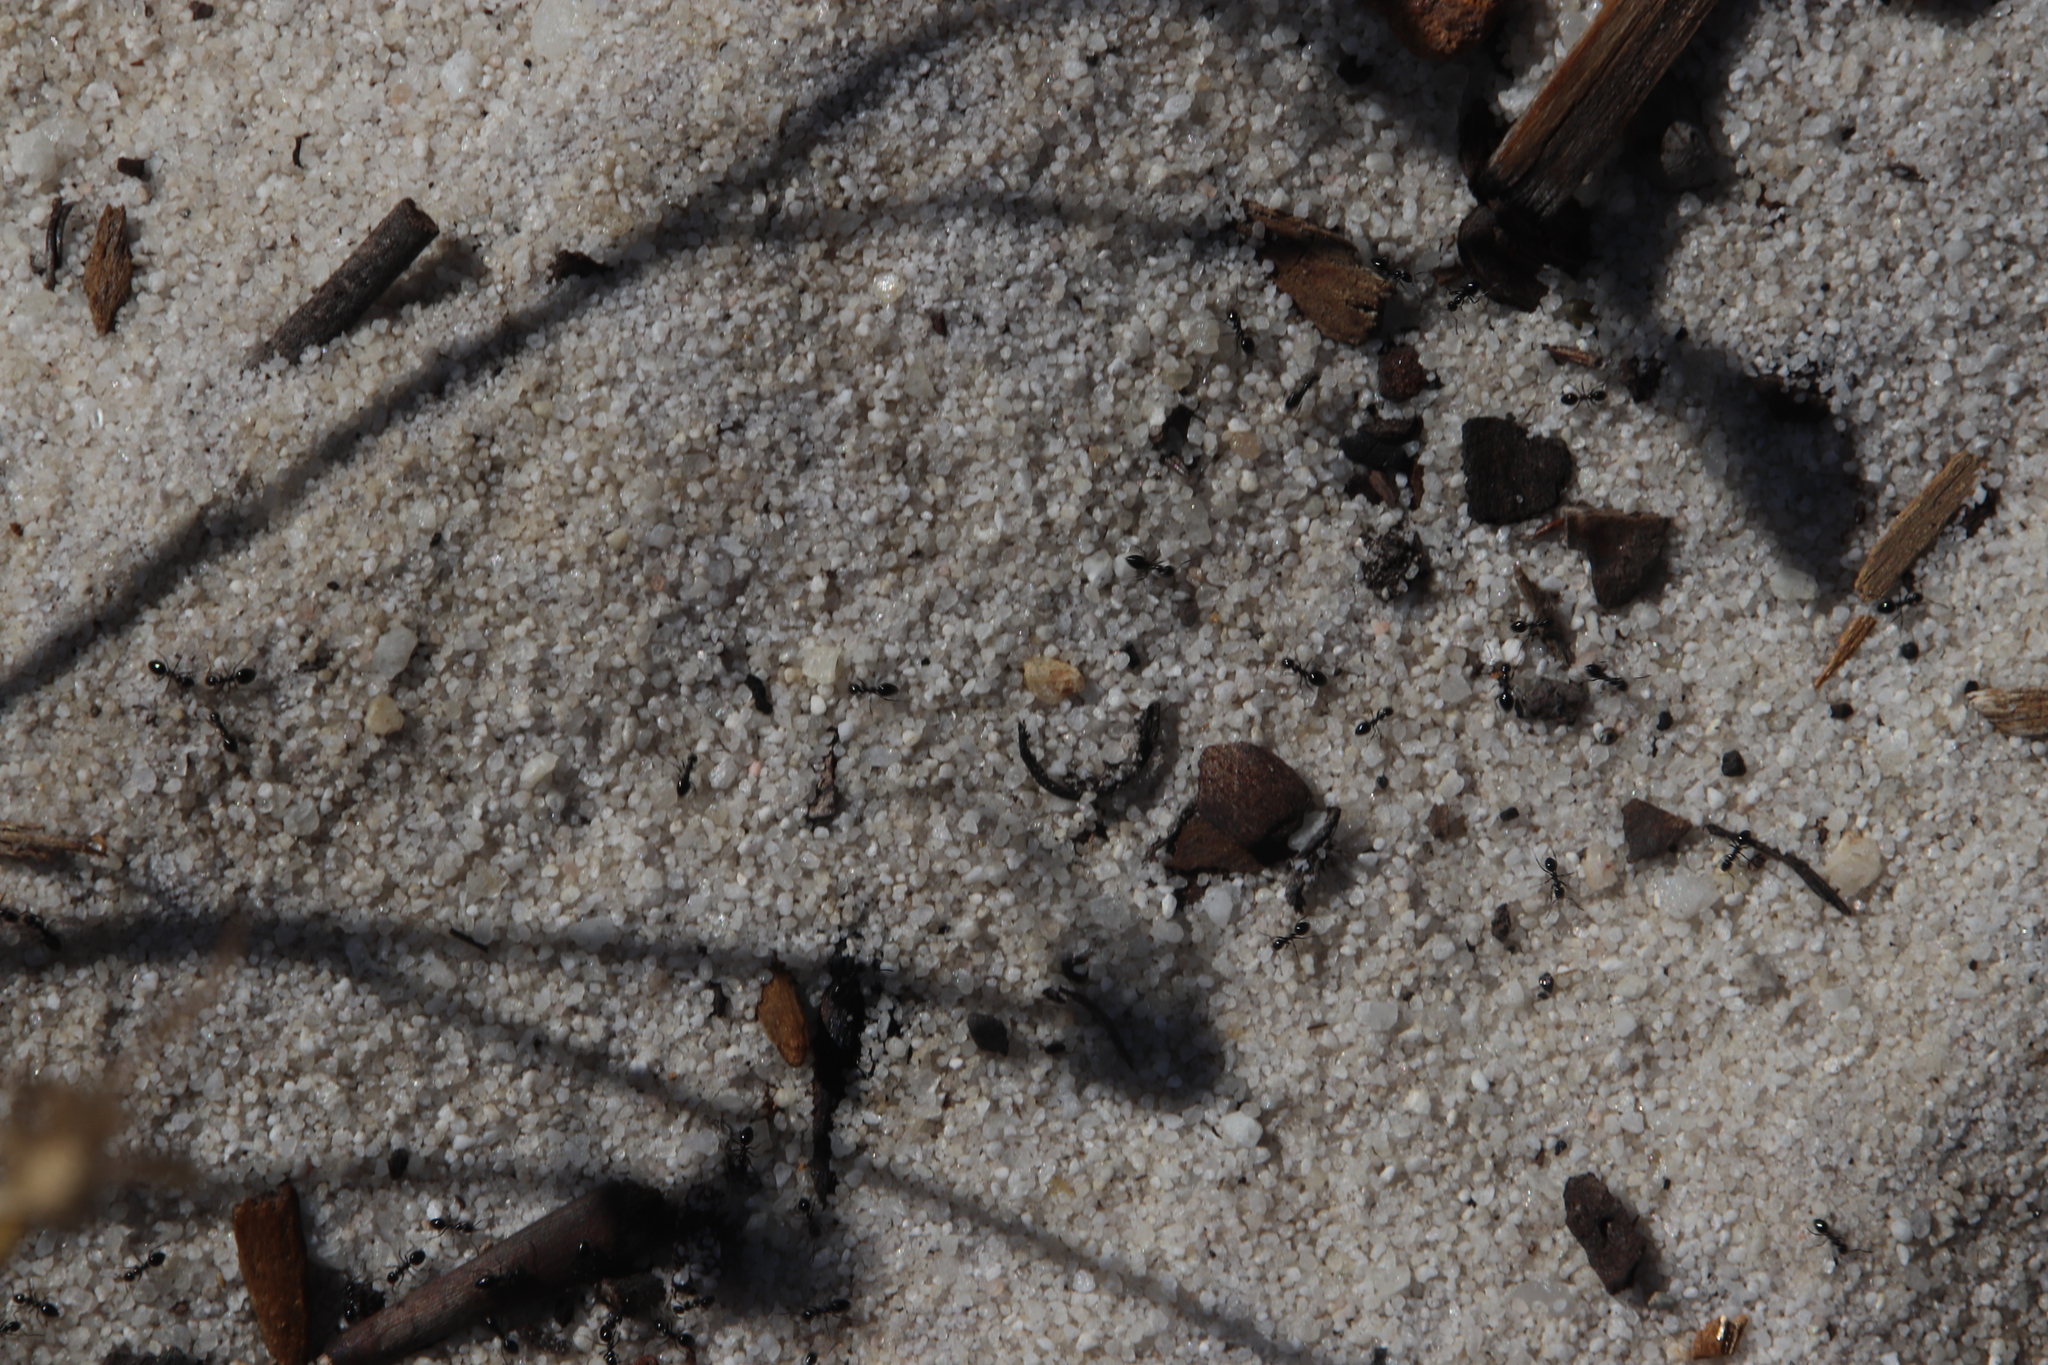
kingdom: Animalia
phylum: Arthropoda
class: Insecta
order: Hymenoptera
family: Formicidae
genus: Lepisiota
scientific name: Lepisiota capensis
